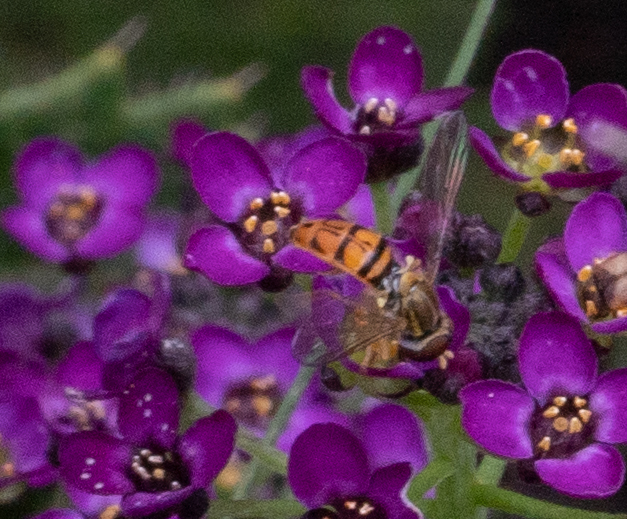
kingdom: Animalia
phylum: Arthropoda
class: Insecta
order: Diptera
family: Syrphidae
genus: Toxomerus
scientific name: Toxomerus marginatus
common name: Syrphid fly
